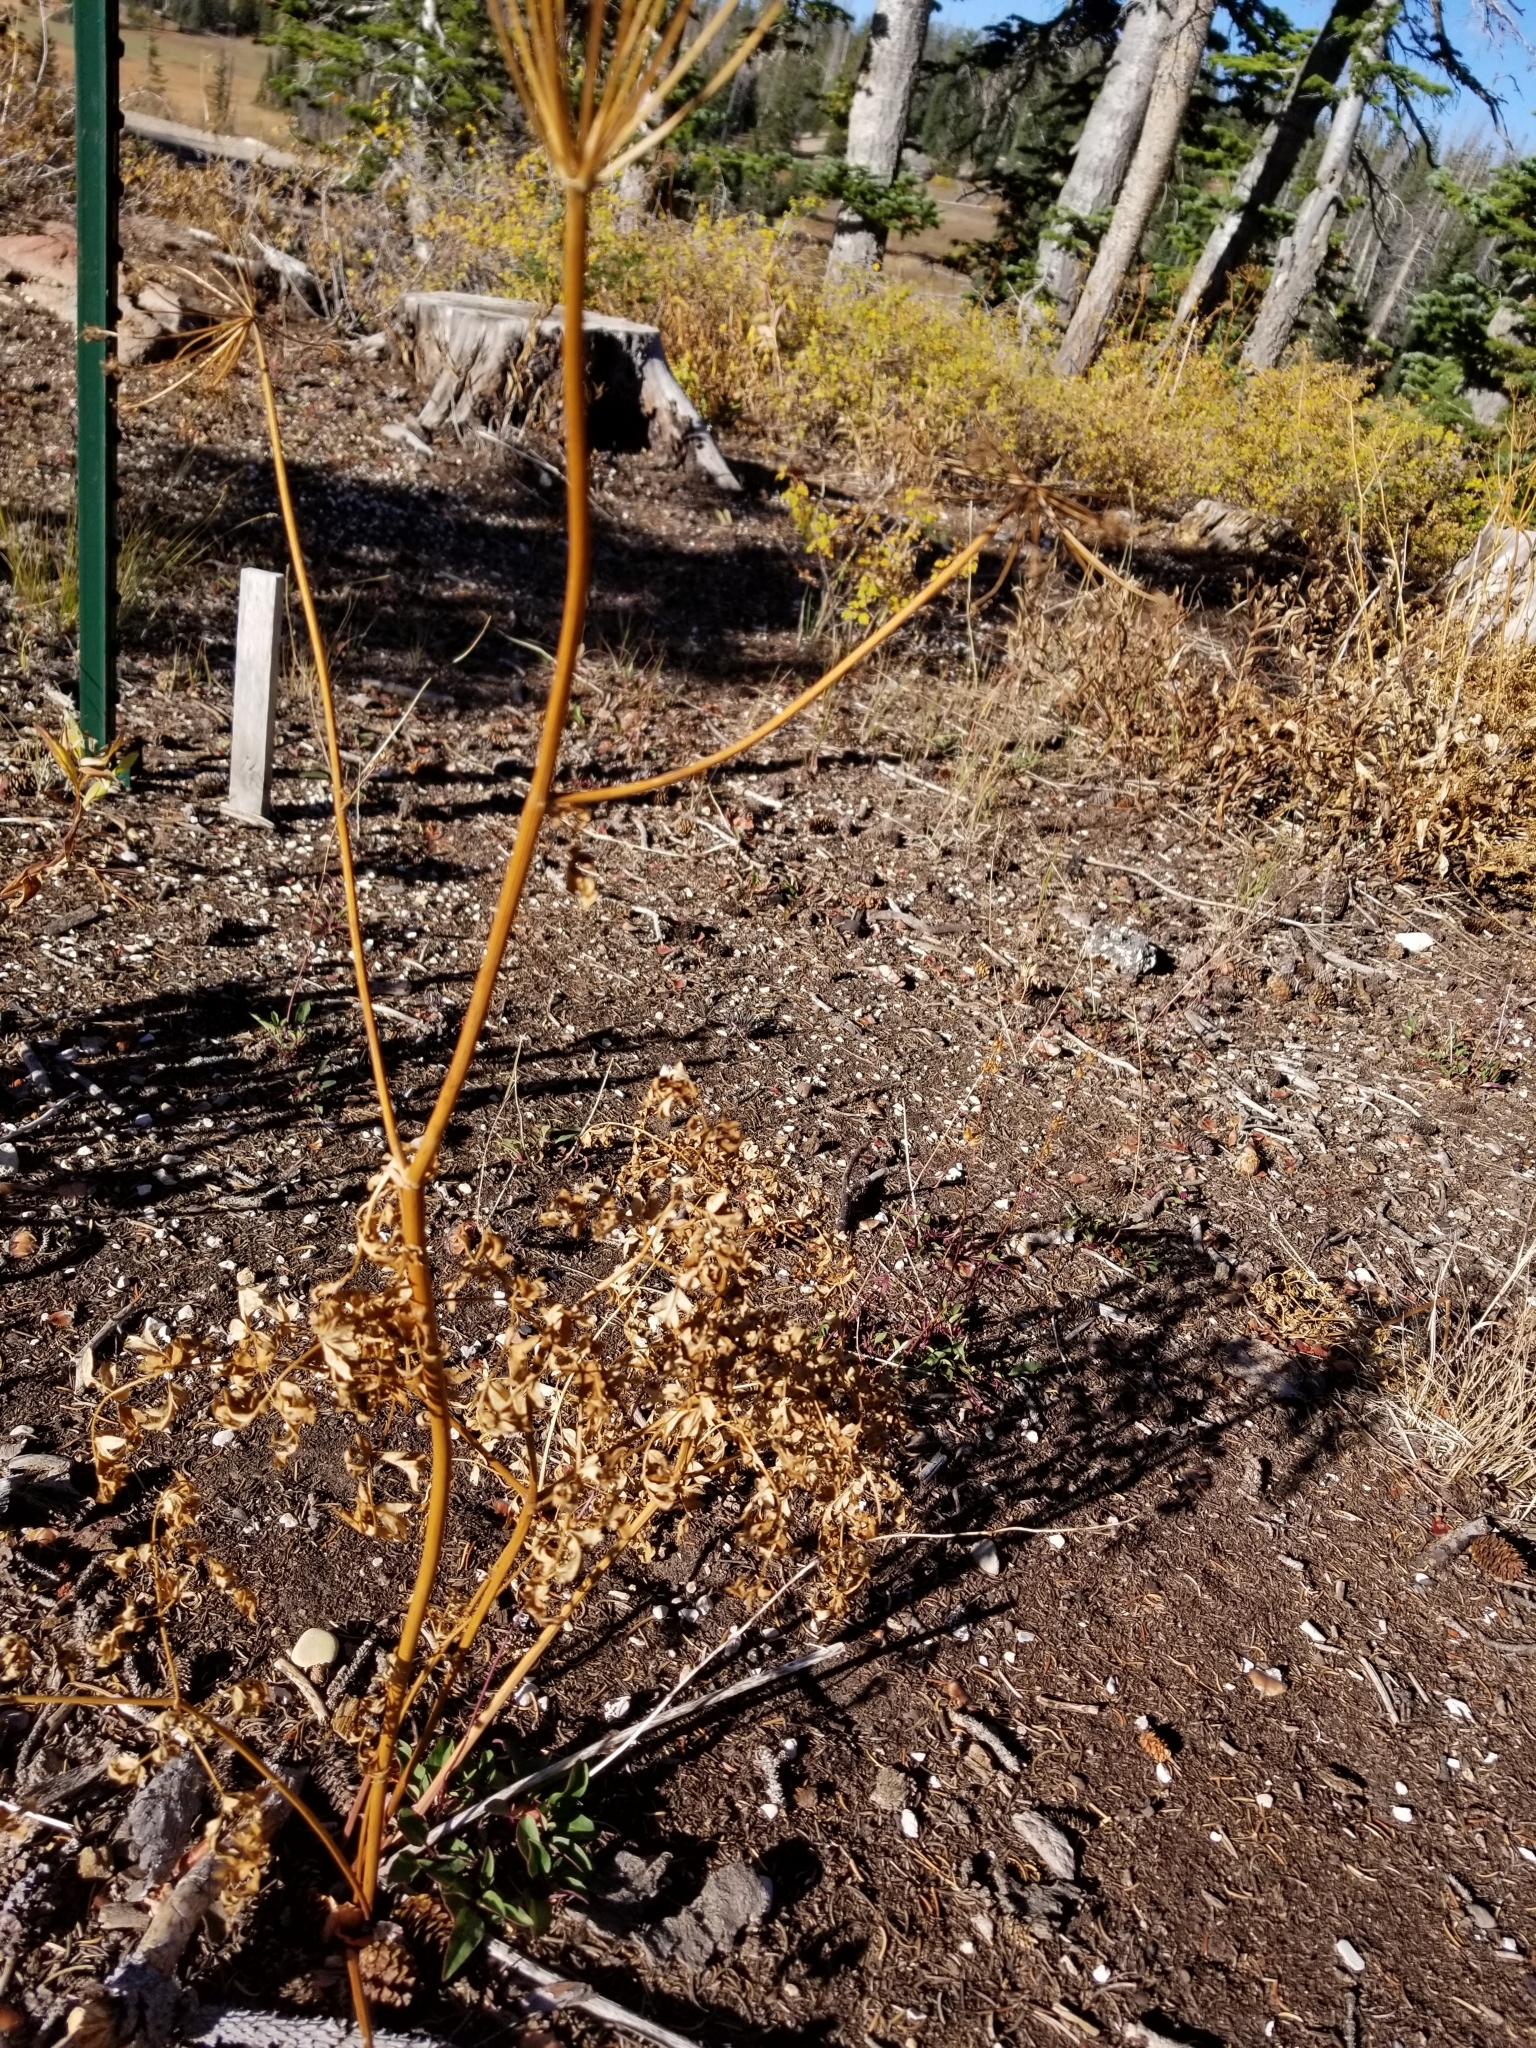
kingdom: Plantae
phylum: Tracheophyta
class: Magnoliopsida
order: Apiales
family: Apiaceae
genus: Ligusticum
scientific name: Ligusticum porteri
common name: Mountain lovage
